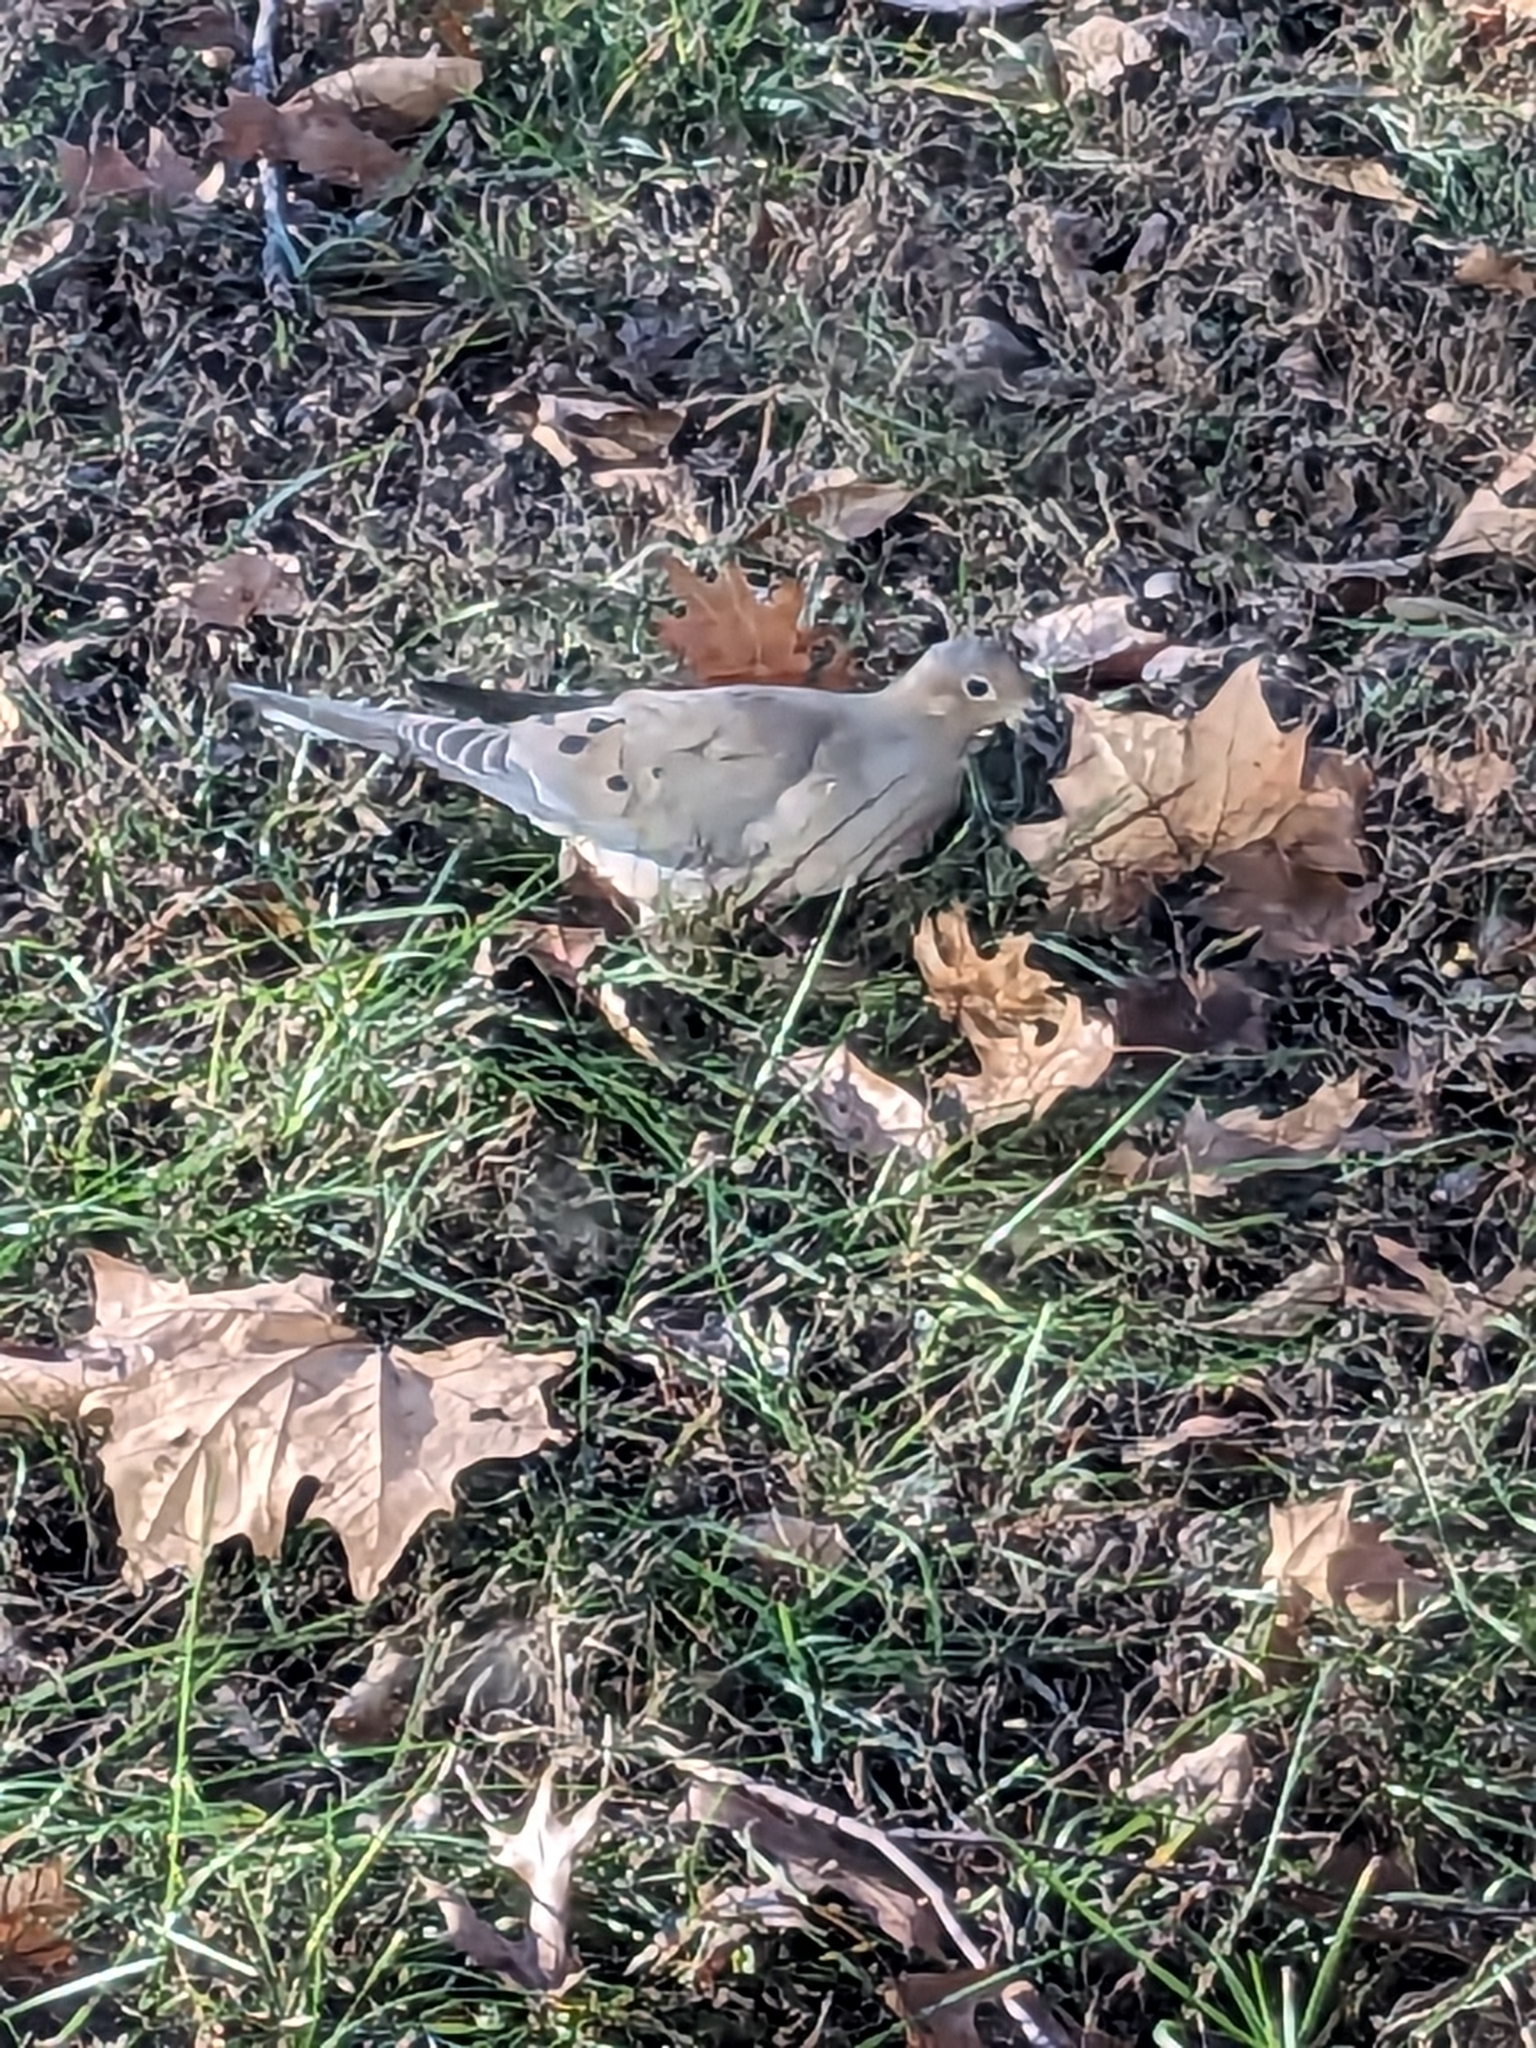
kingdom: Animalia
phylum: Chordata
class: Aves
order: Columbiformes
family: Columbidae
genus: Zenaida
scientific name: Zenaida macroura
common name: Mourning dove
